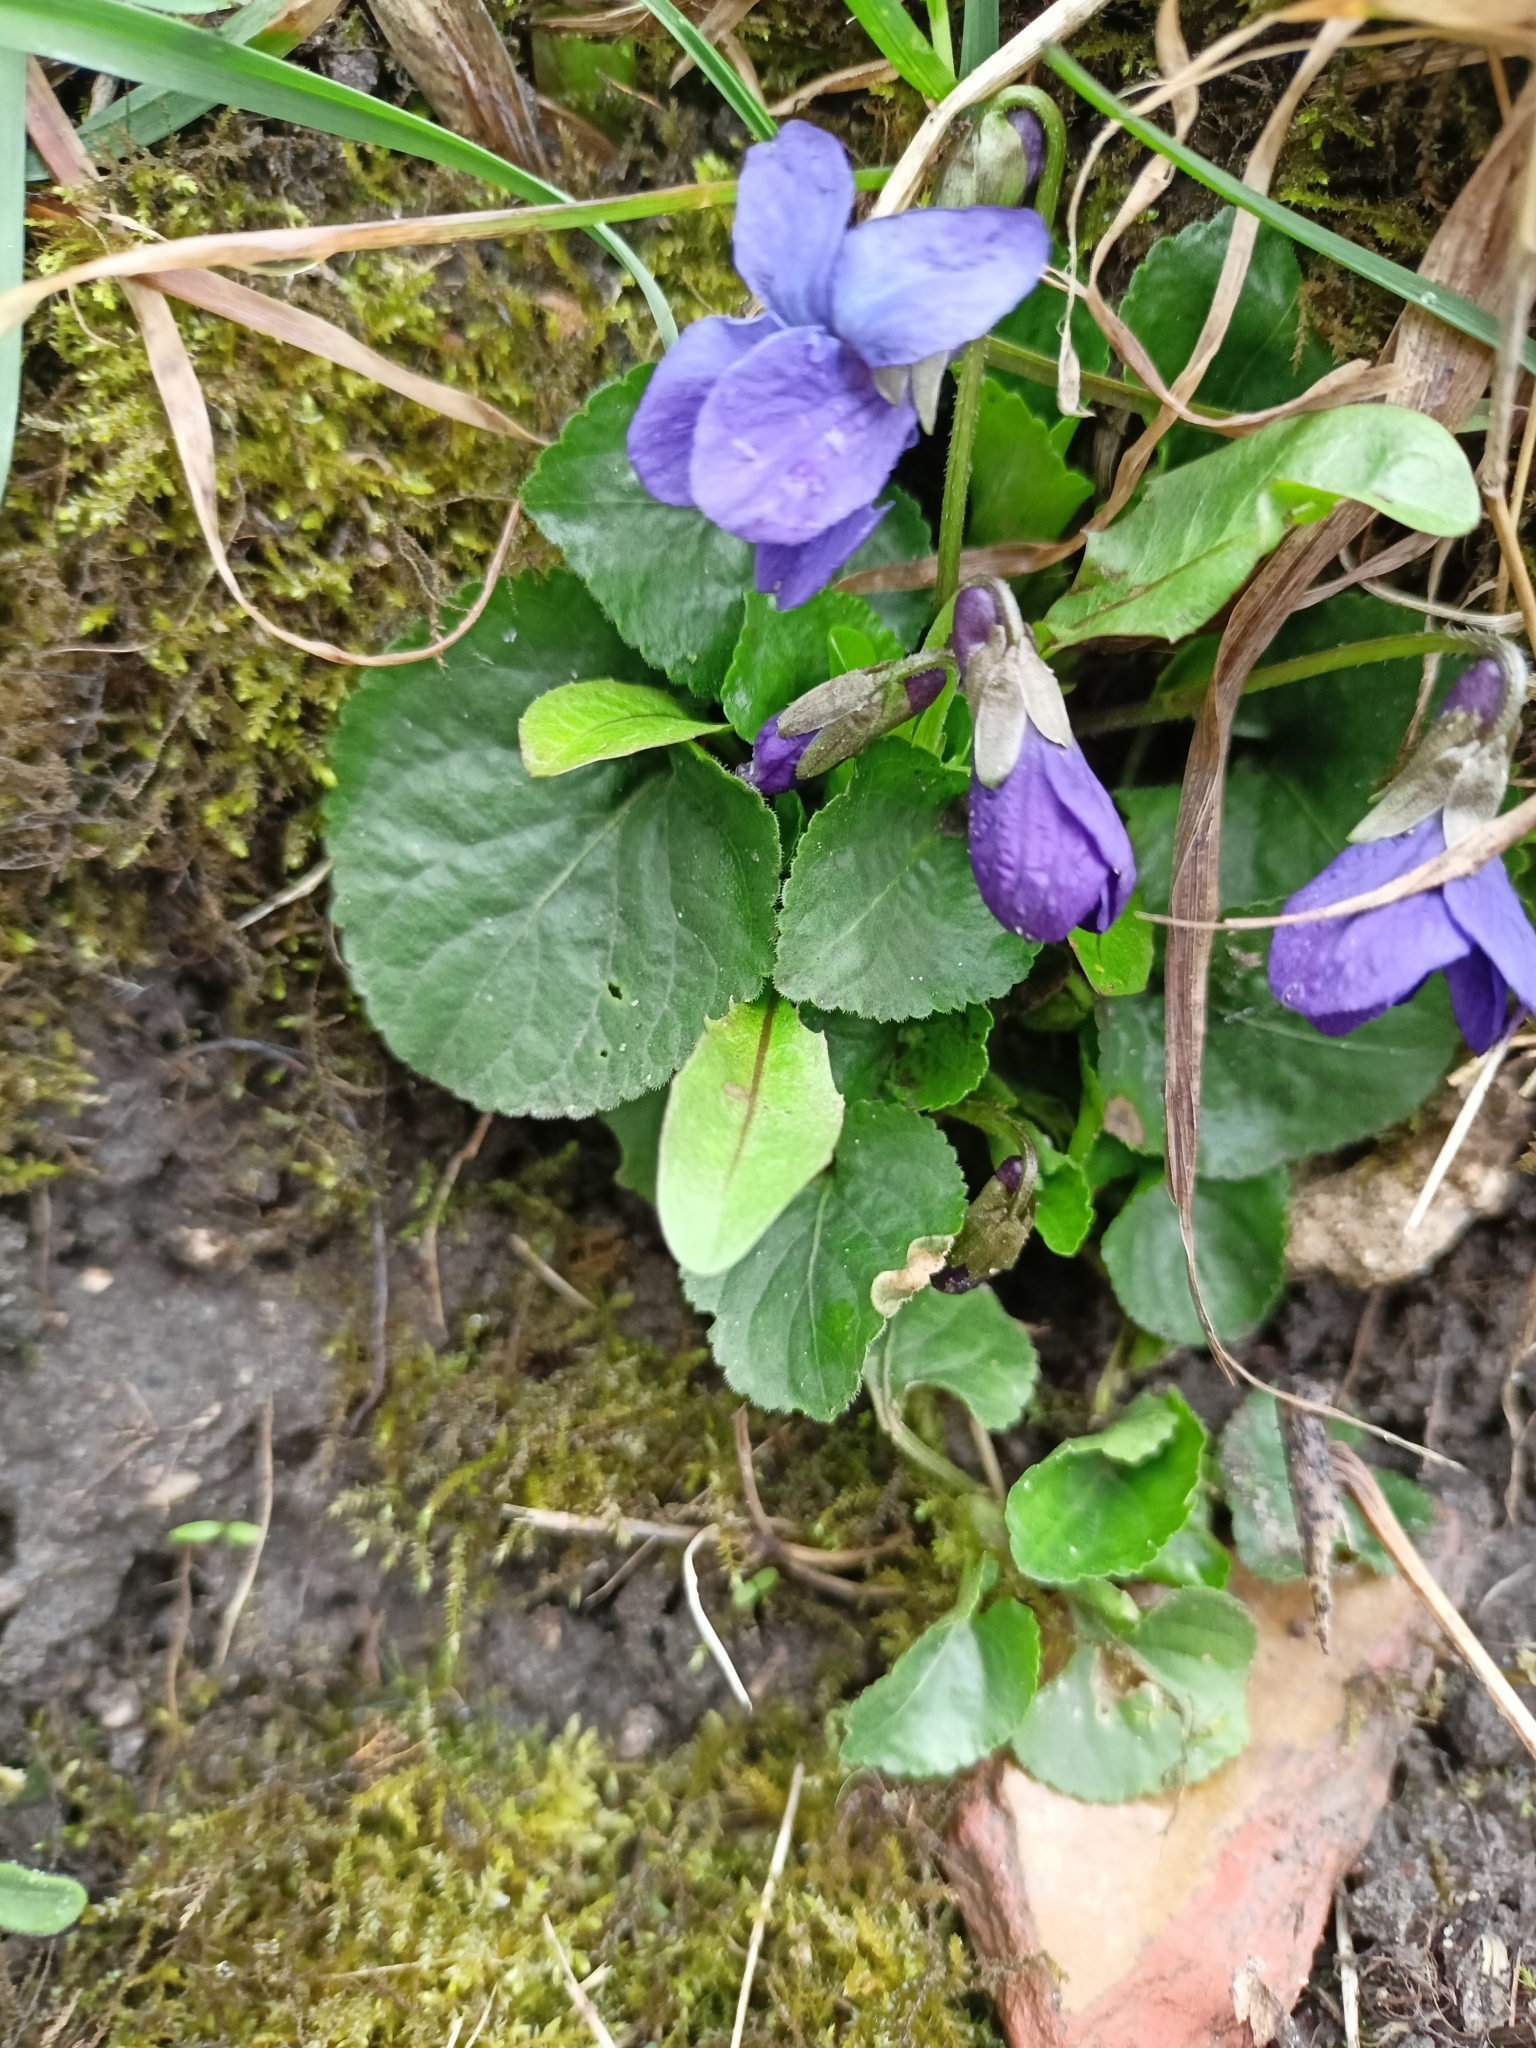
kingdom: Plantae
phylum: Tracheophyta
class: Magnoliopsida
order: Malpighiales
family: Violaceae
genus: Viola
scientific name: Viola odorata
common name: Sweet violet
